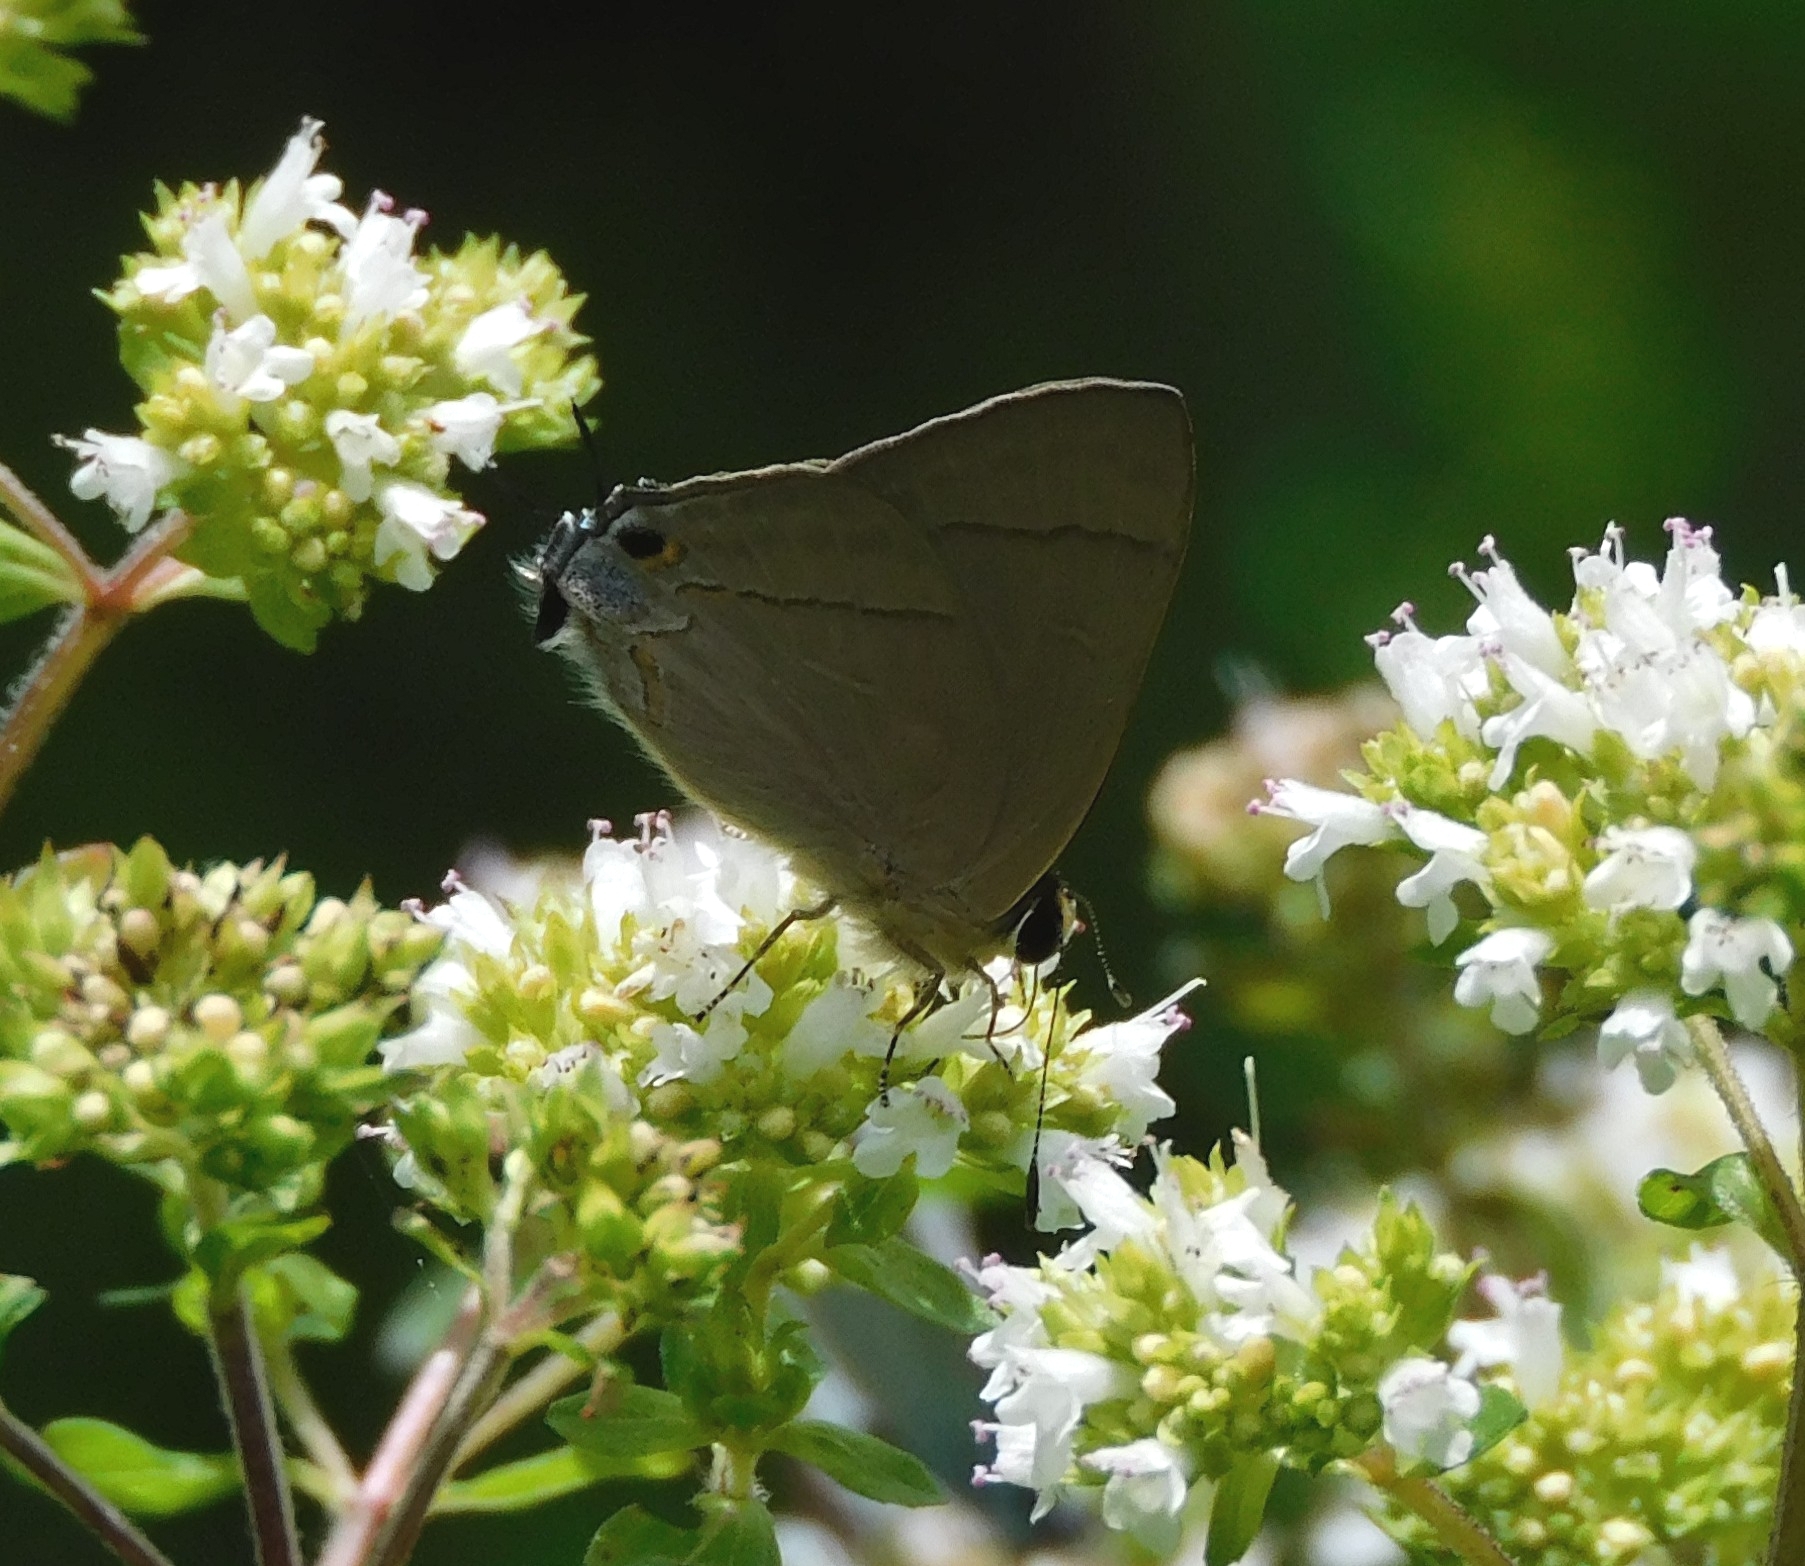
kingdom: Animalia
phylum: Arthropoda
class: Insecta
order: Lepidoptera
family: Lycaenidae
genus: Rapala
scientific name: Rapala nissa
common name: Common flash
